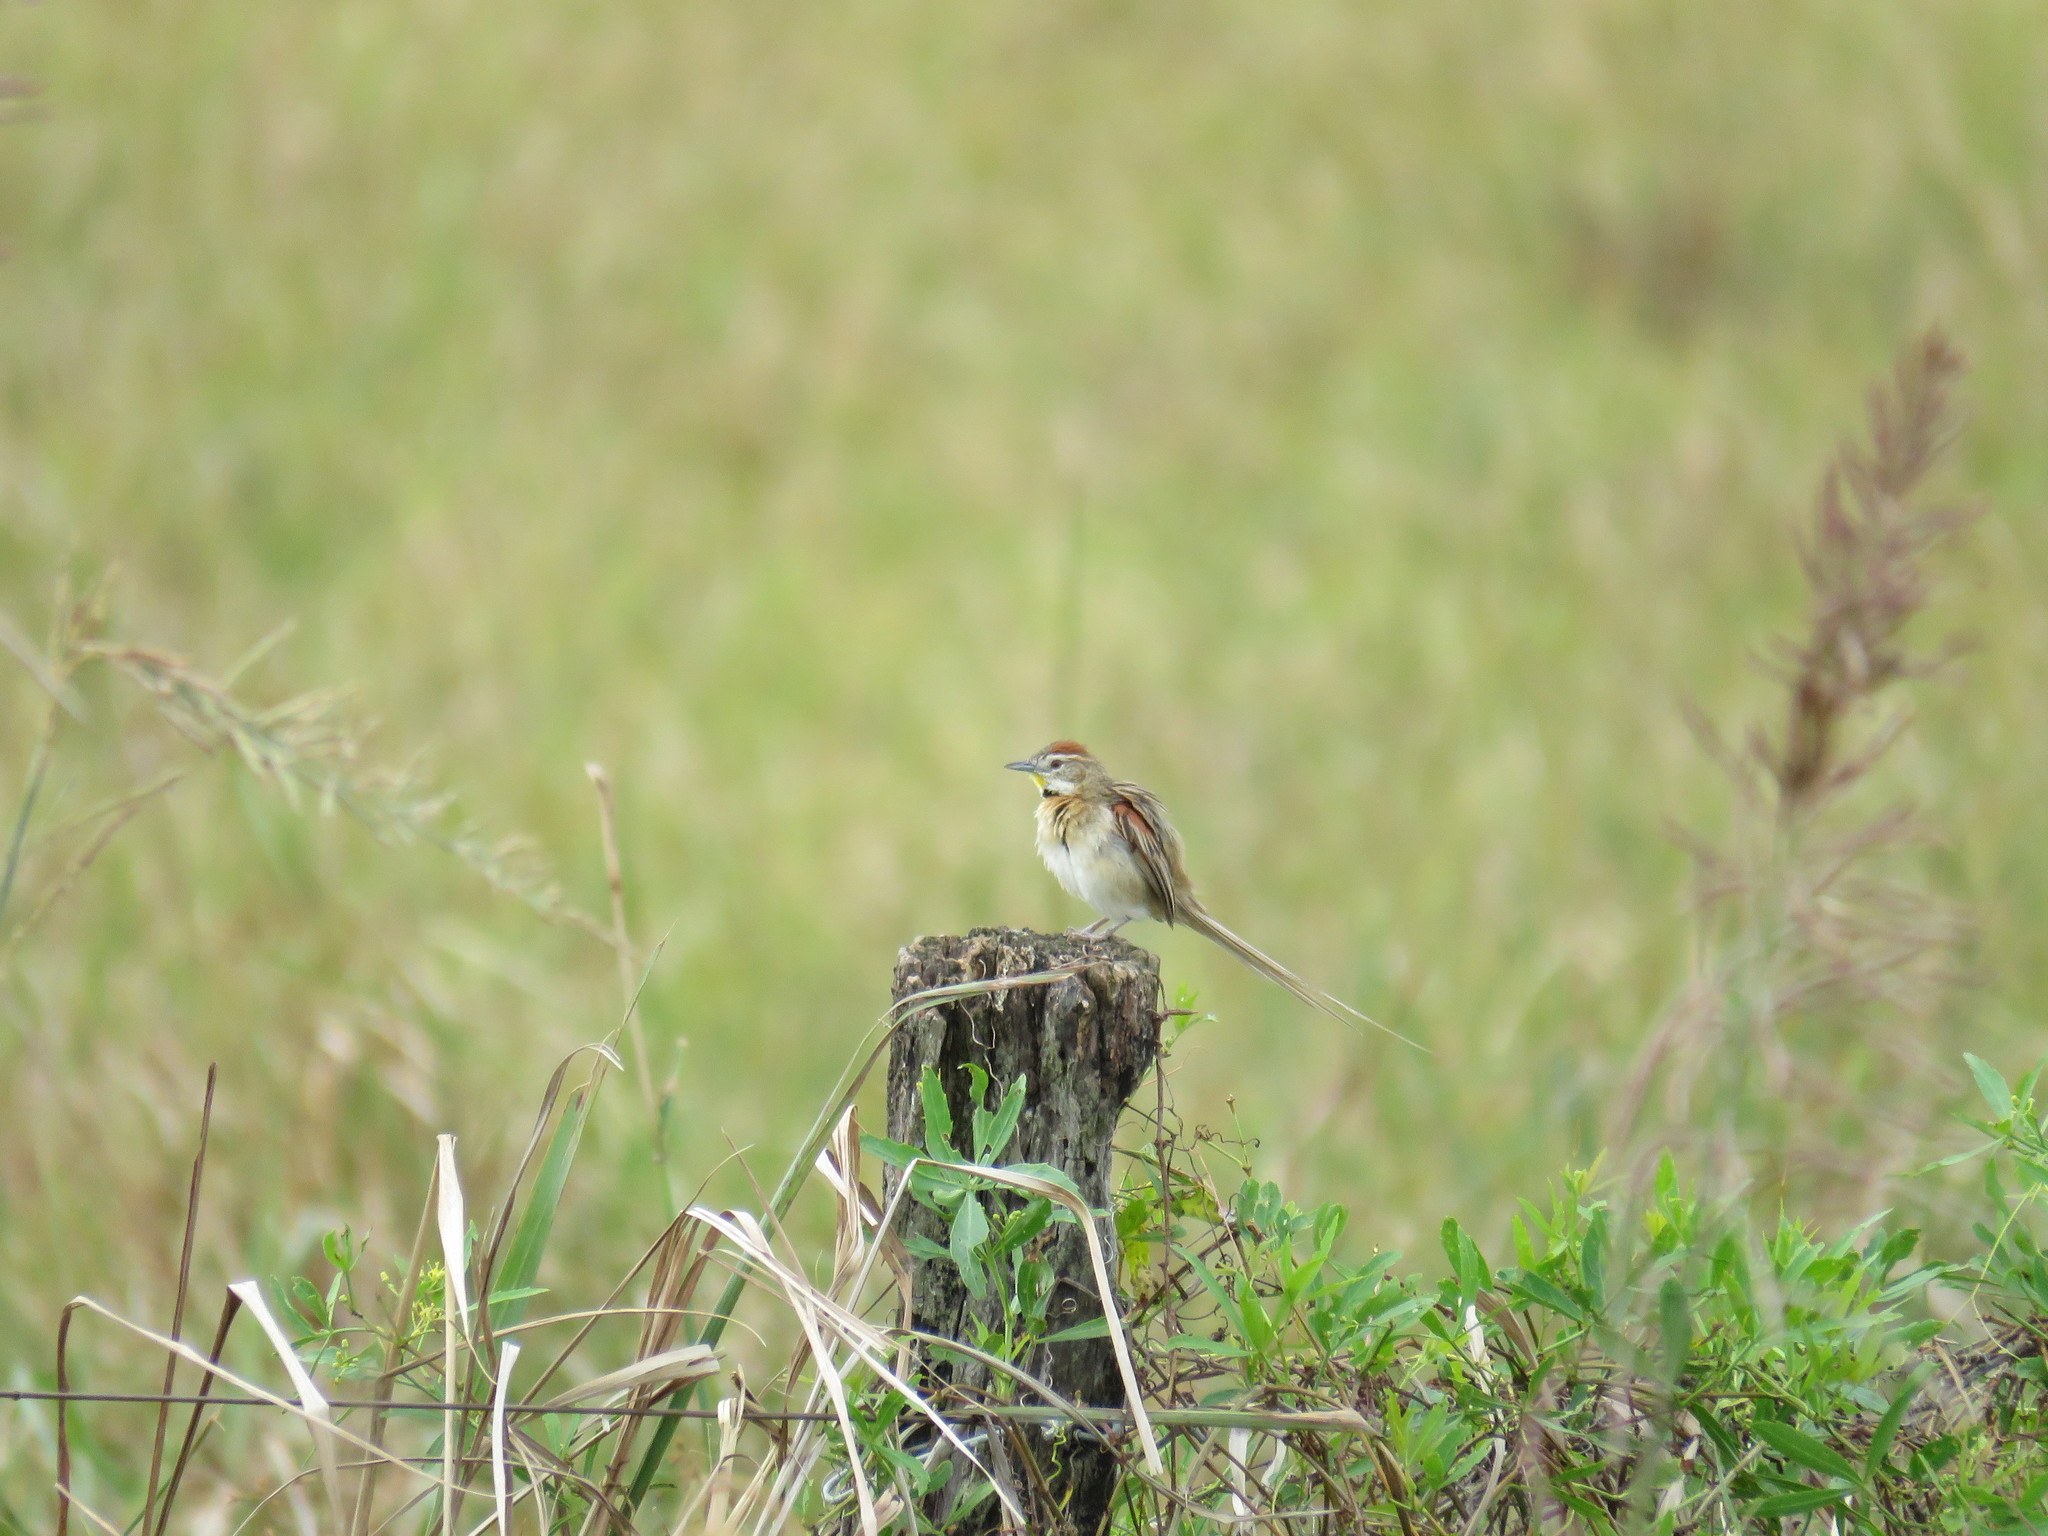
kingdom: Animalia
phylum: Chordata
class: Aves
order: Passeriformes
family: Furnariidae
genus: Schoeniophylax
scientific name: Schoeniophylax phryganophilus
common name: Chotoy spinetail
